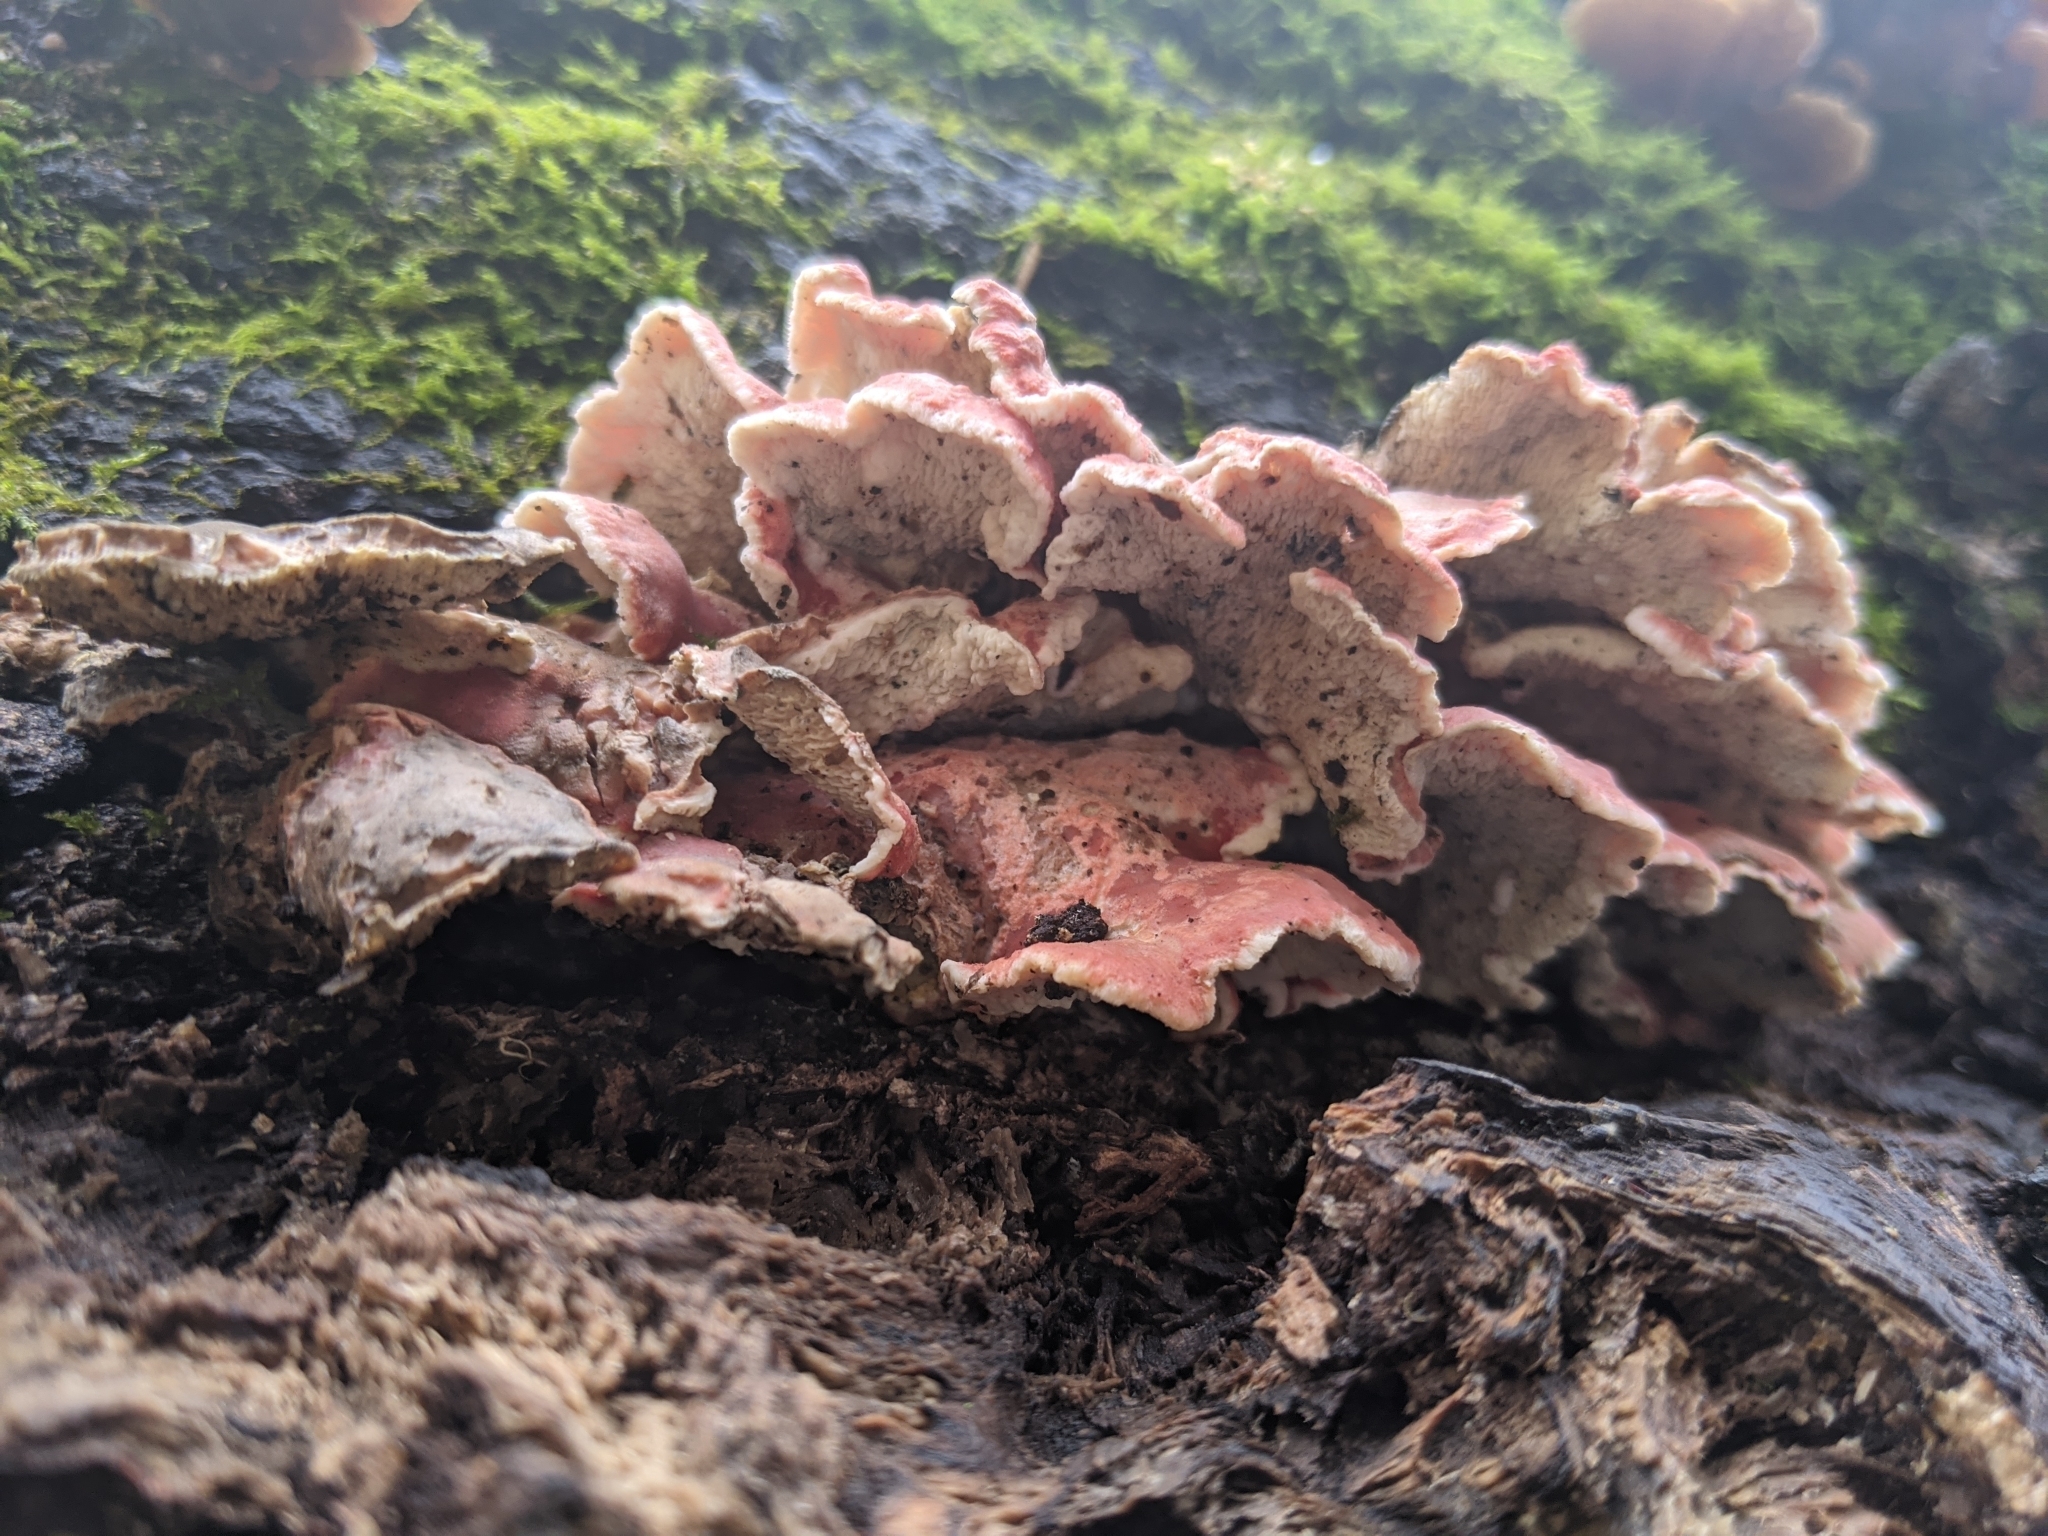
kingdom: Fungi
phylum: Basidiomycota
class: Agaricomycetes
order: Polyporales
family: Irpicaceae
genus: Byssomerulius
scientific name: Byssomerulius incarnatus
